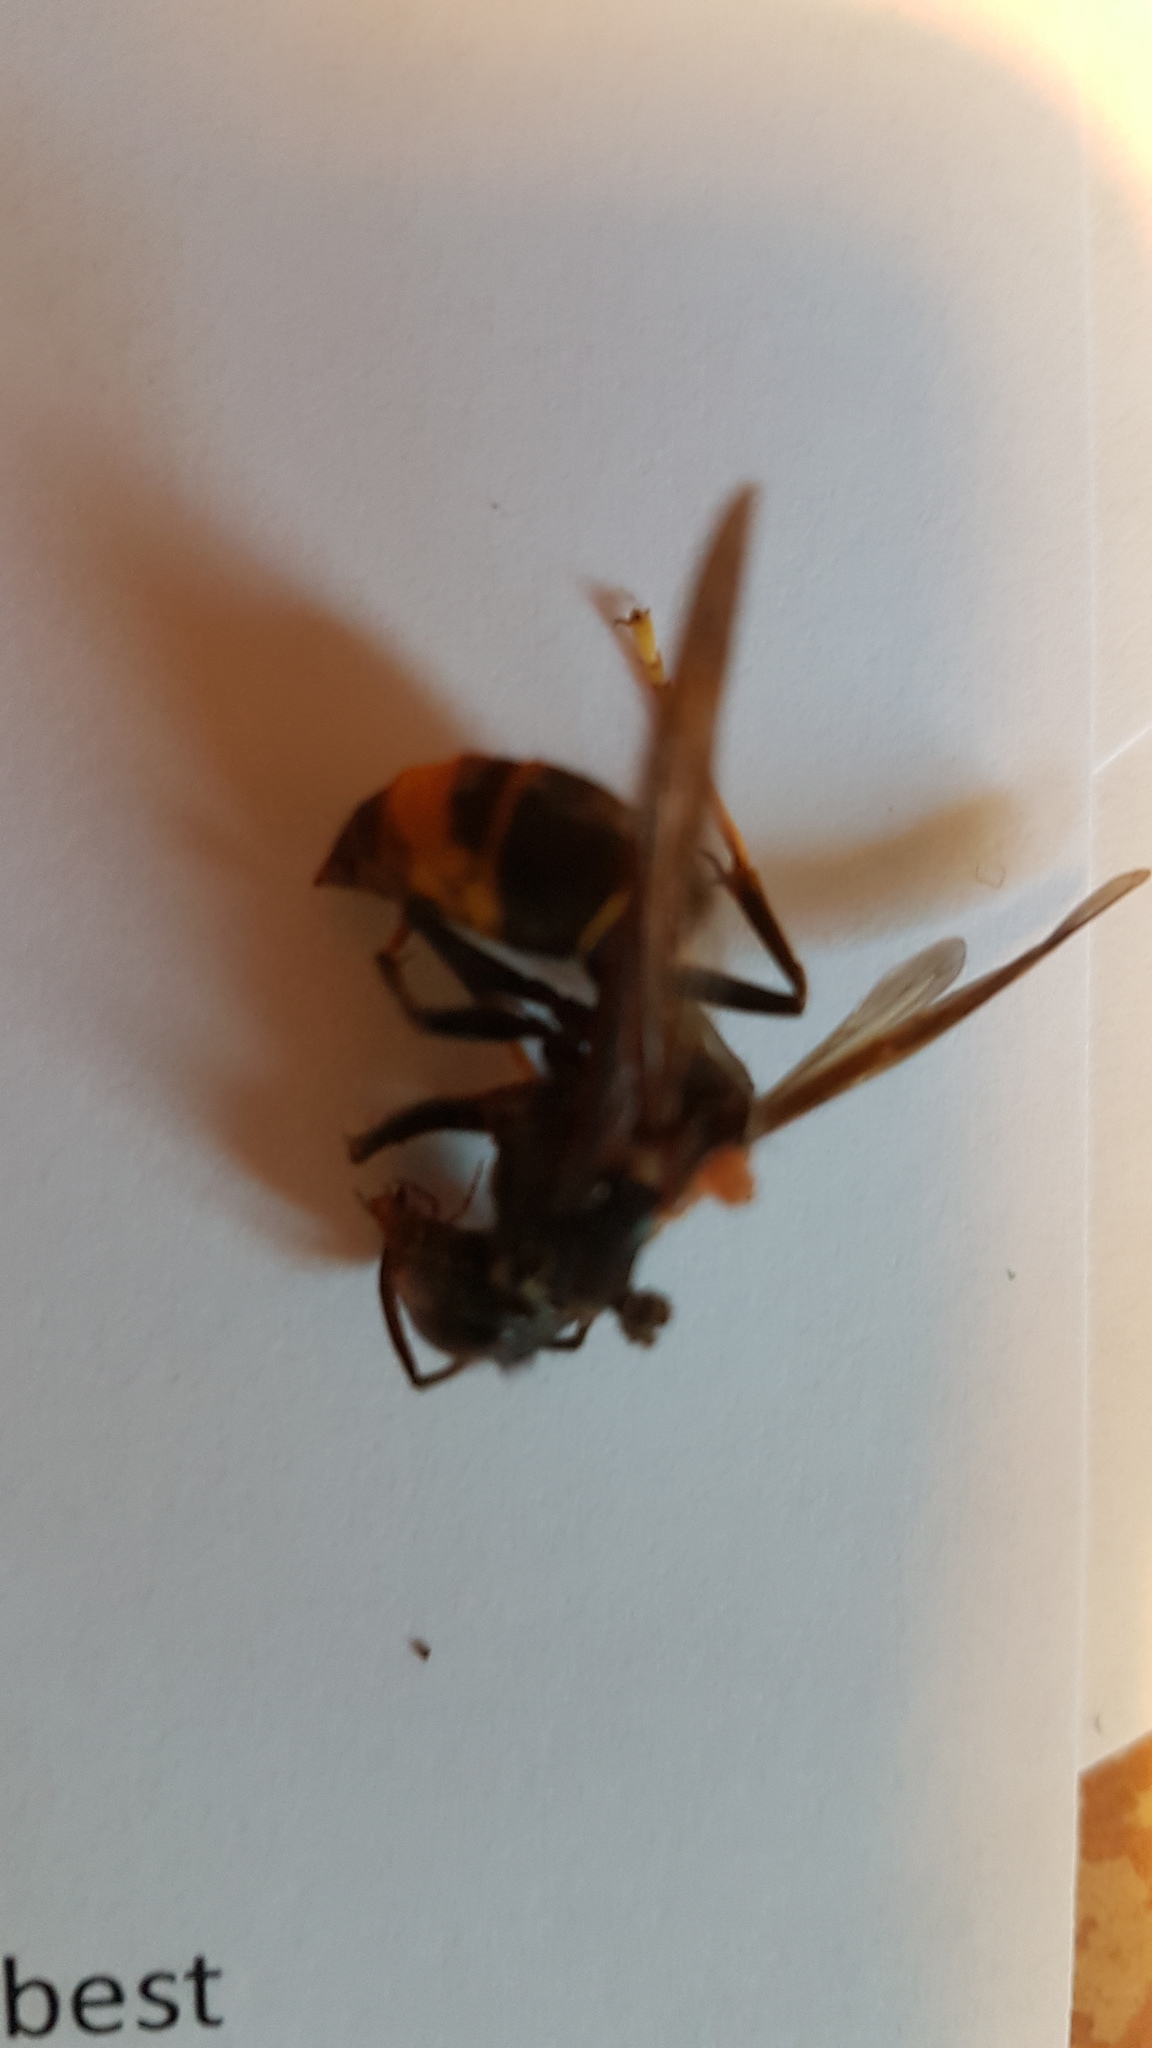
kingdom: Animalia
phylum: Arthropoda
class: Insecta
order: Hymenoptera
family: Vespidae
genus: Vespa
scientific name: Vespa velutina
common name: Asian hornet
